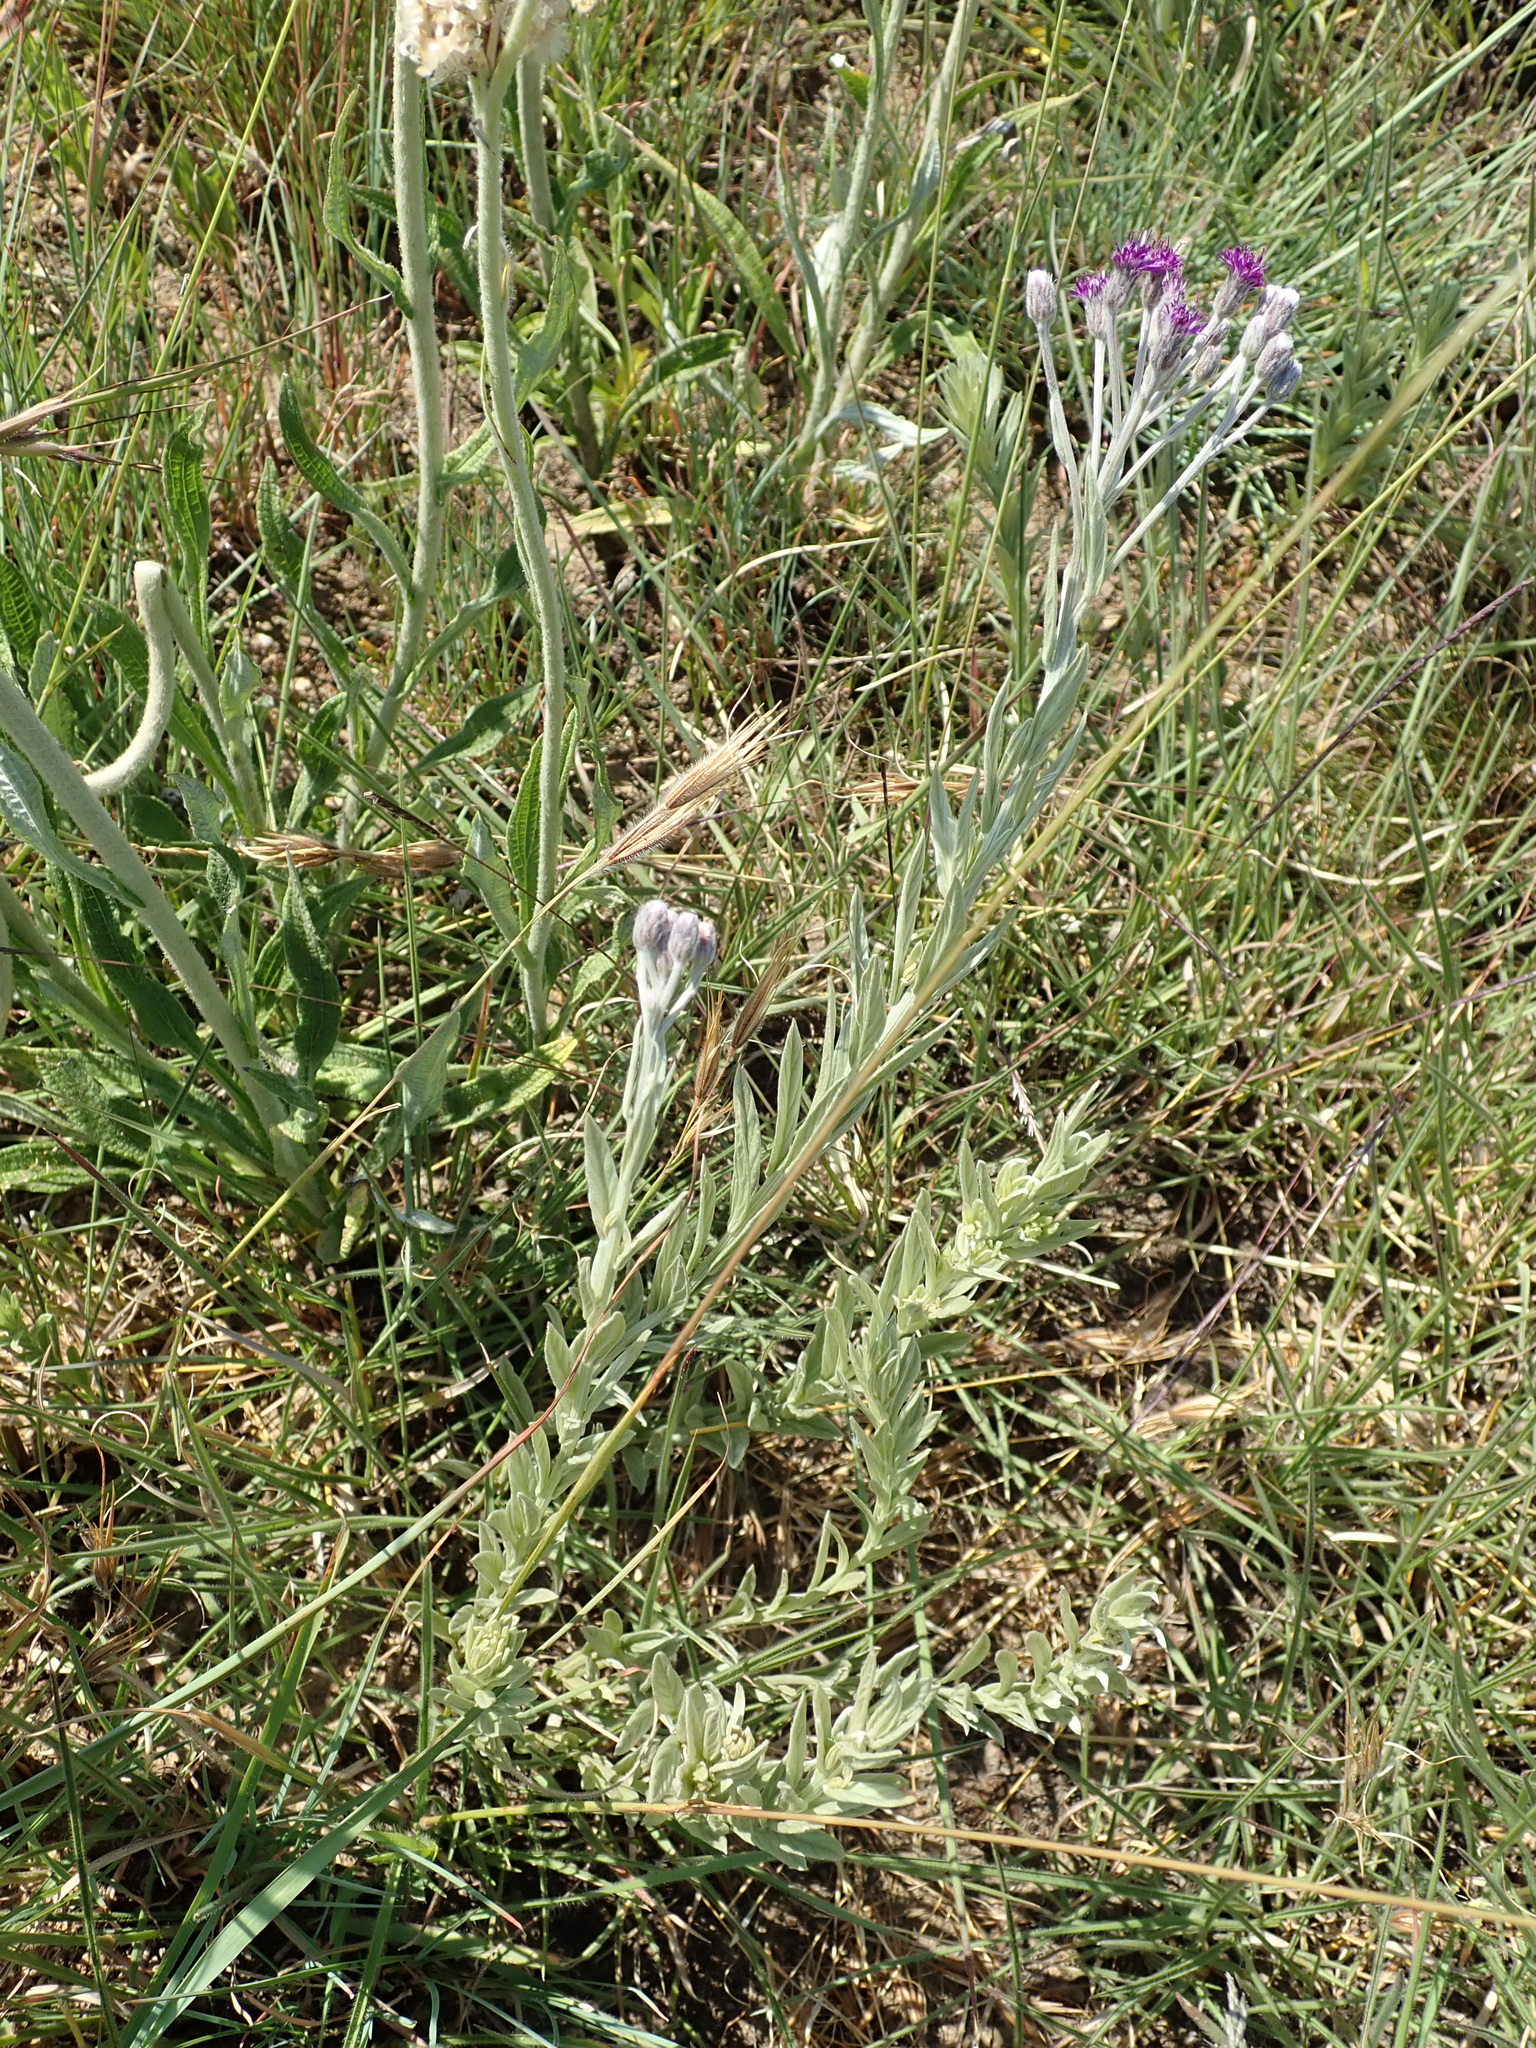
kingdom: Plantae
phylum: Tracheophyta
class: Magnoliopsida
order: Asterales
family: Asteraceae
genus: Hilliardiella
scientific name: Hilliardiella aristata
